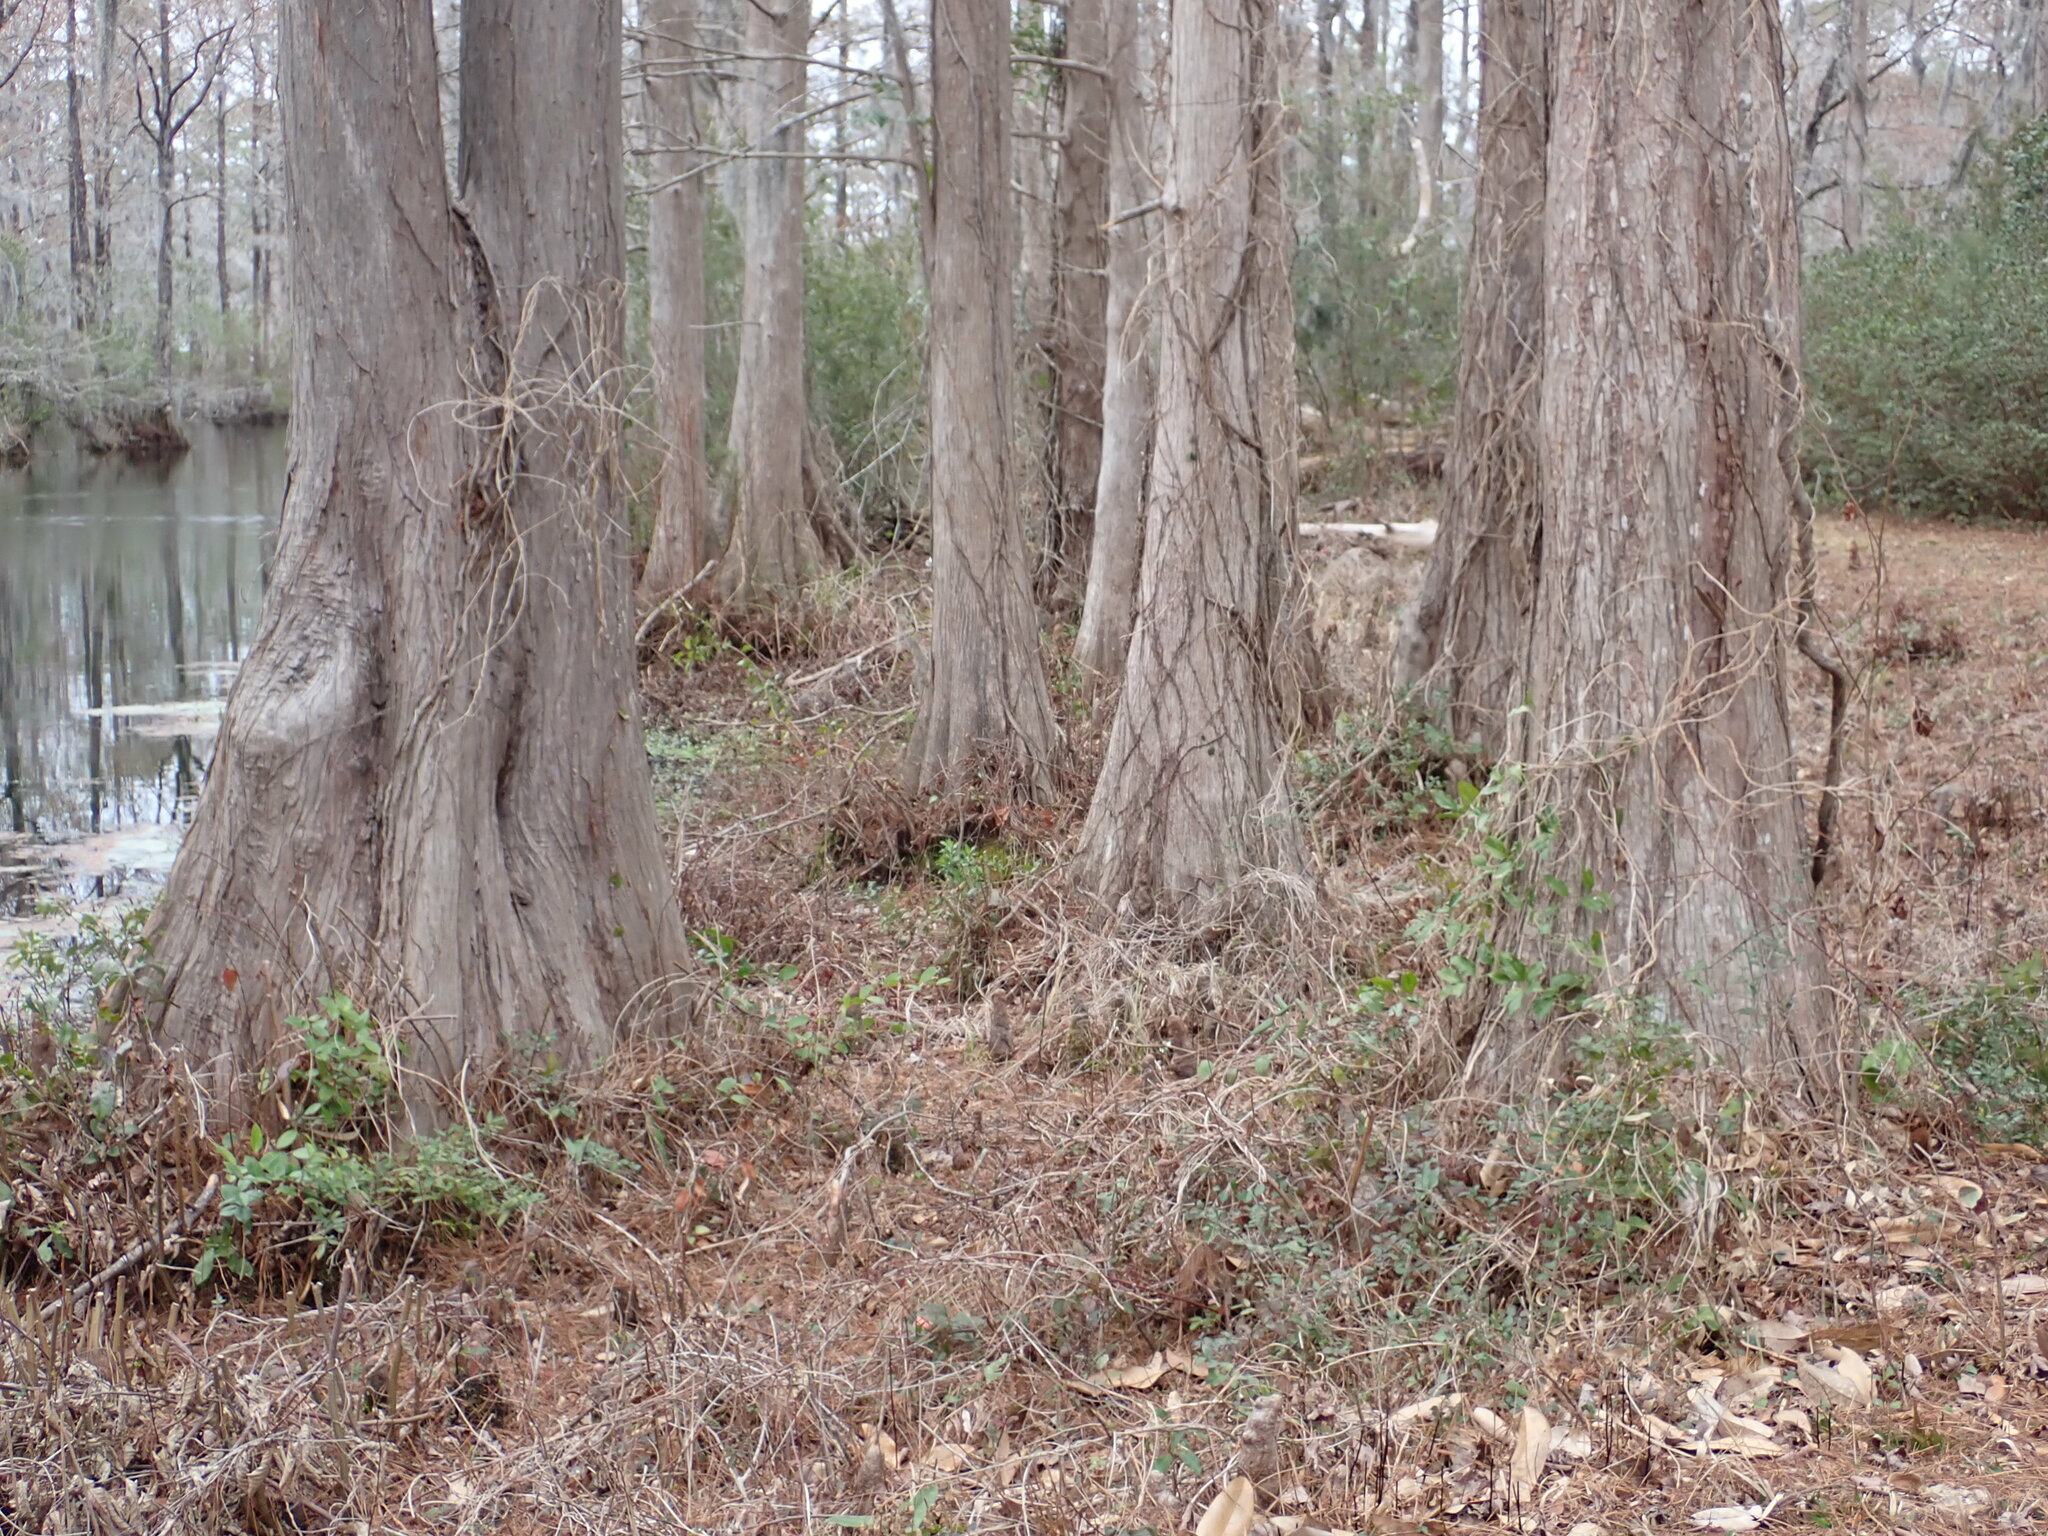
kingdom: Plantae
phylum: Tracheophyta
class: Pinopsida
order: Pinales
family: Cupressaceae
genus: Taxodium
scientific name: Taxodium distichum
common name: Bald cypress
